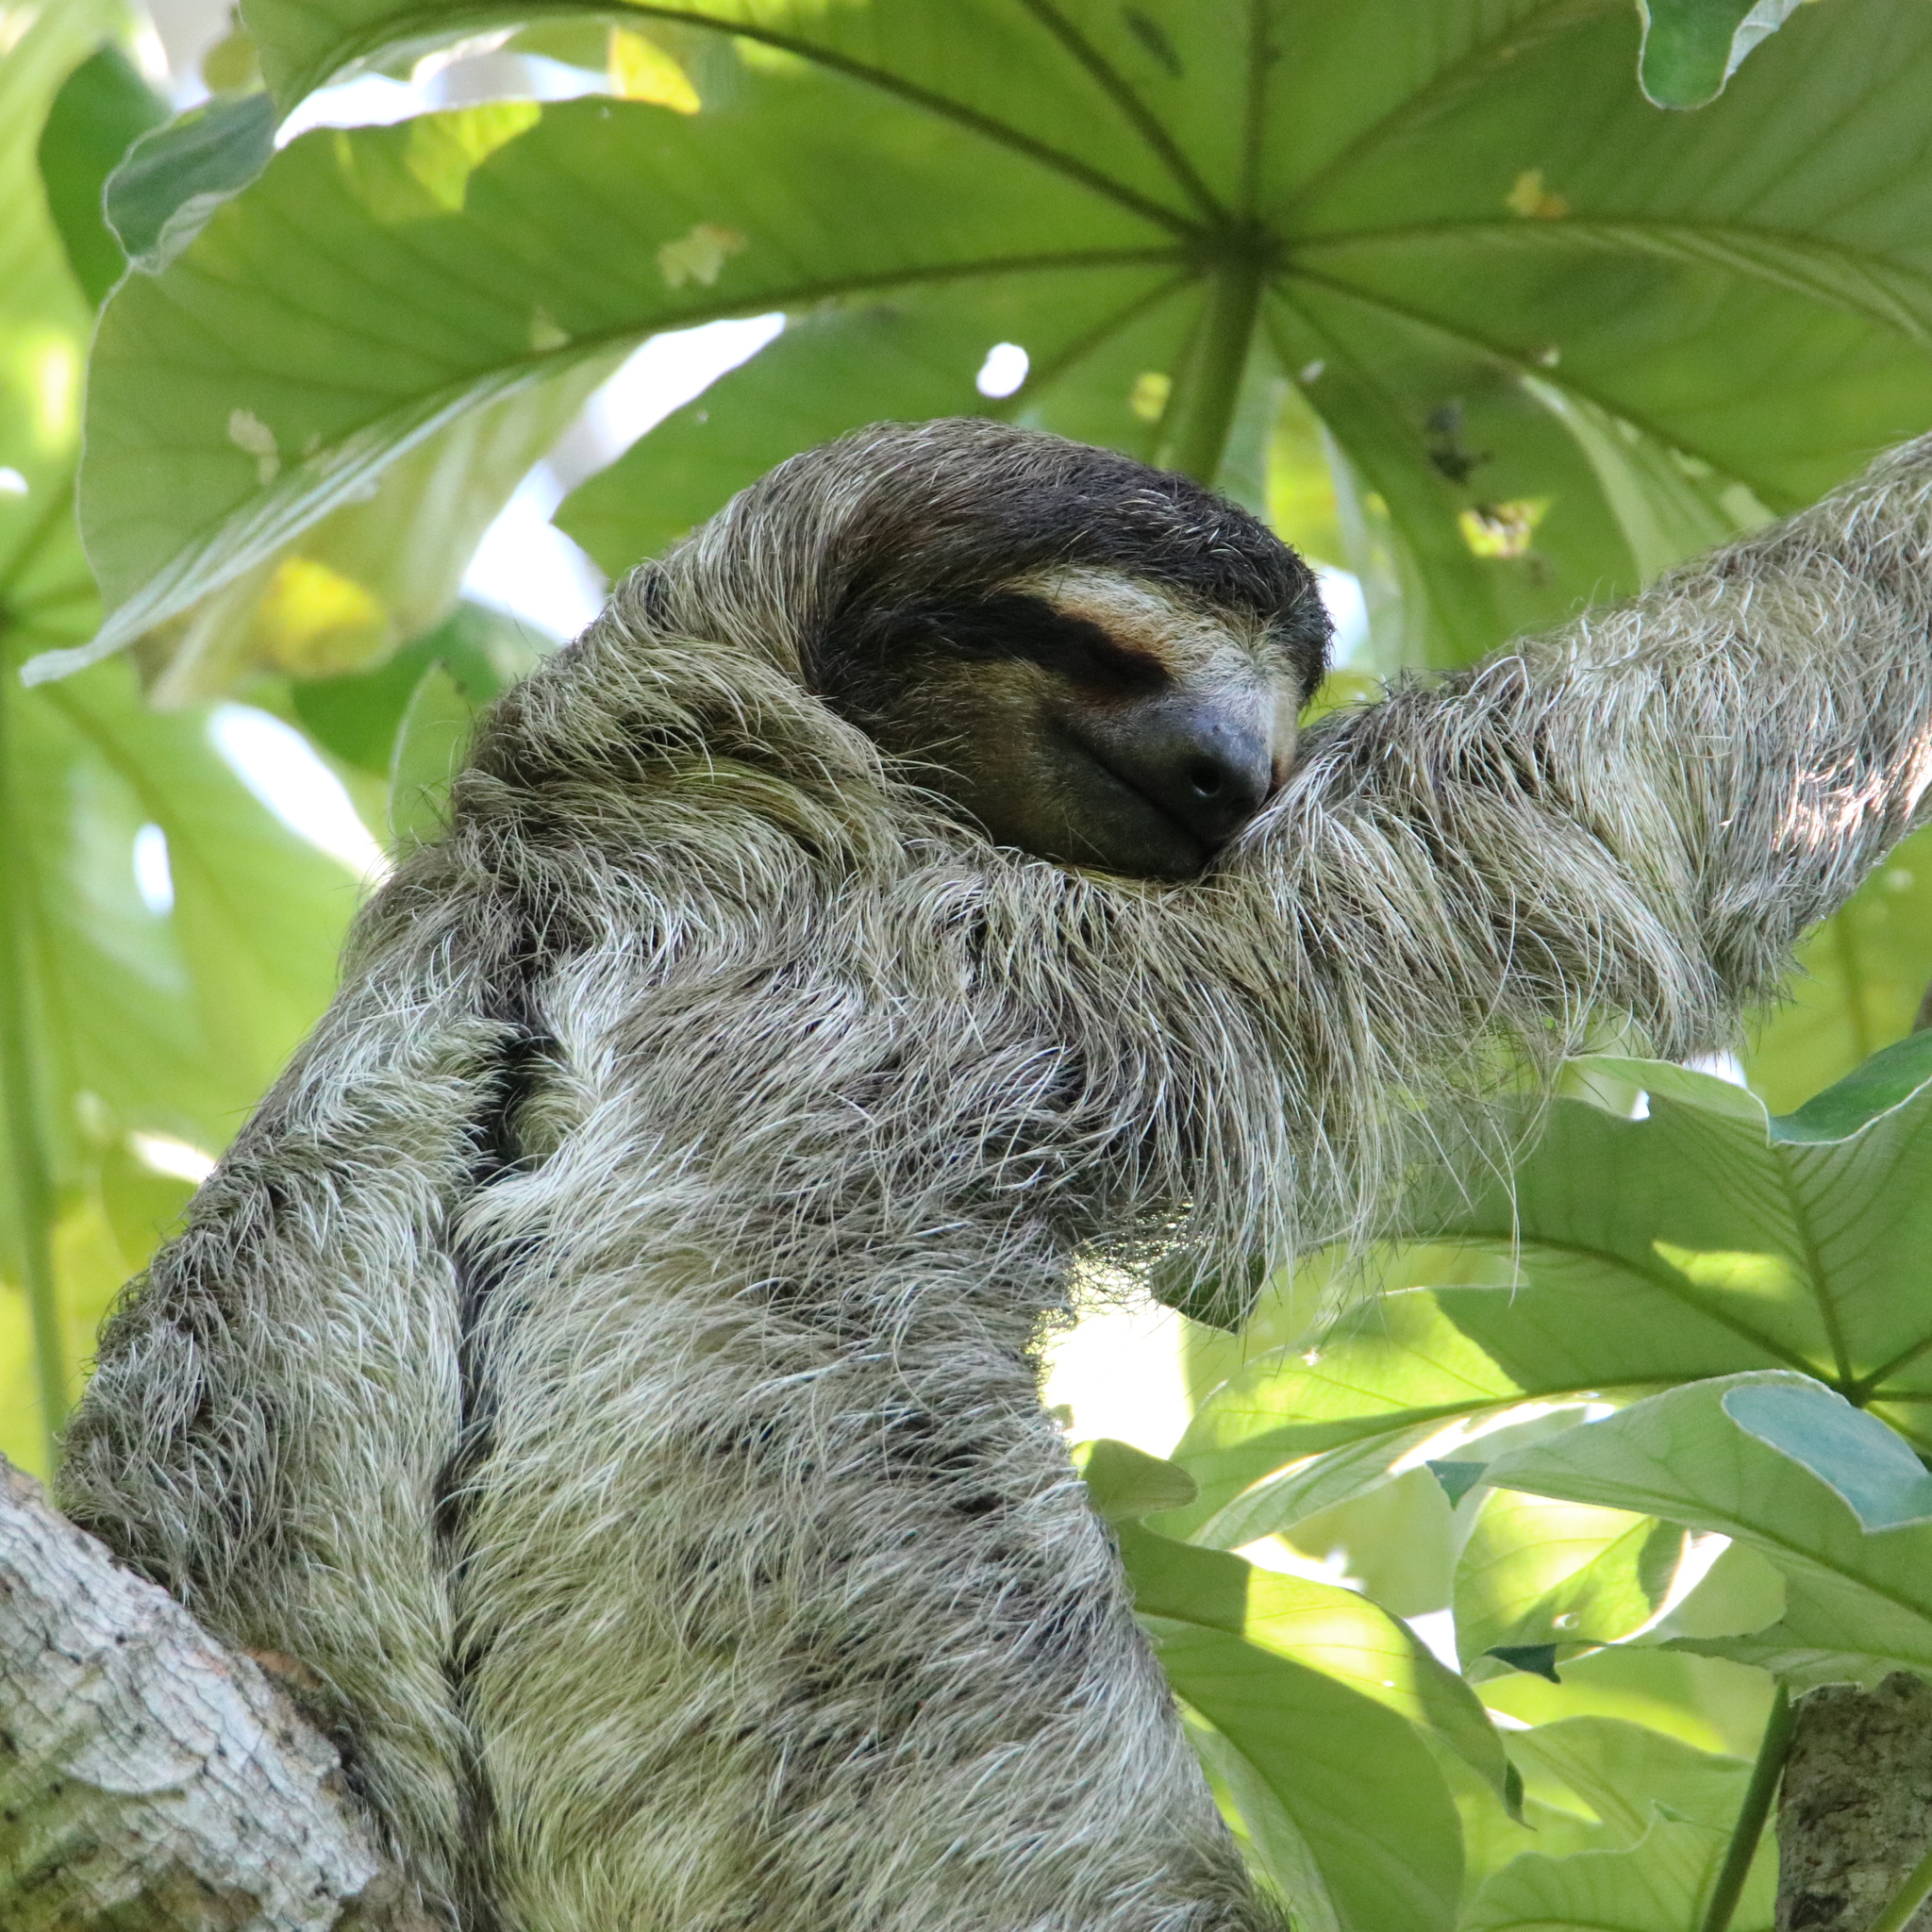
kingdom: Animalia
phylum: Chordata
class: Mammalia
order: Pilosa
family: Bradypodidae
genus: Bradypus
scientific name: Bradypus variegatus
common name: Brown-throated three-toed sloth
